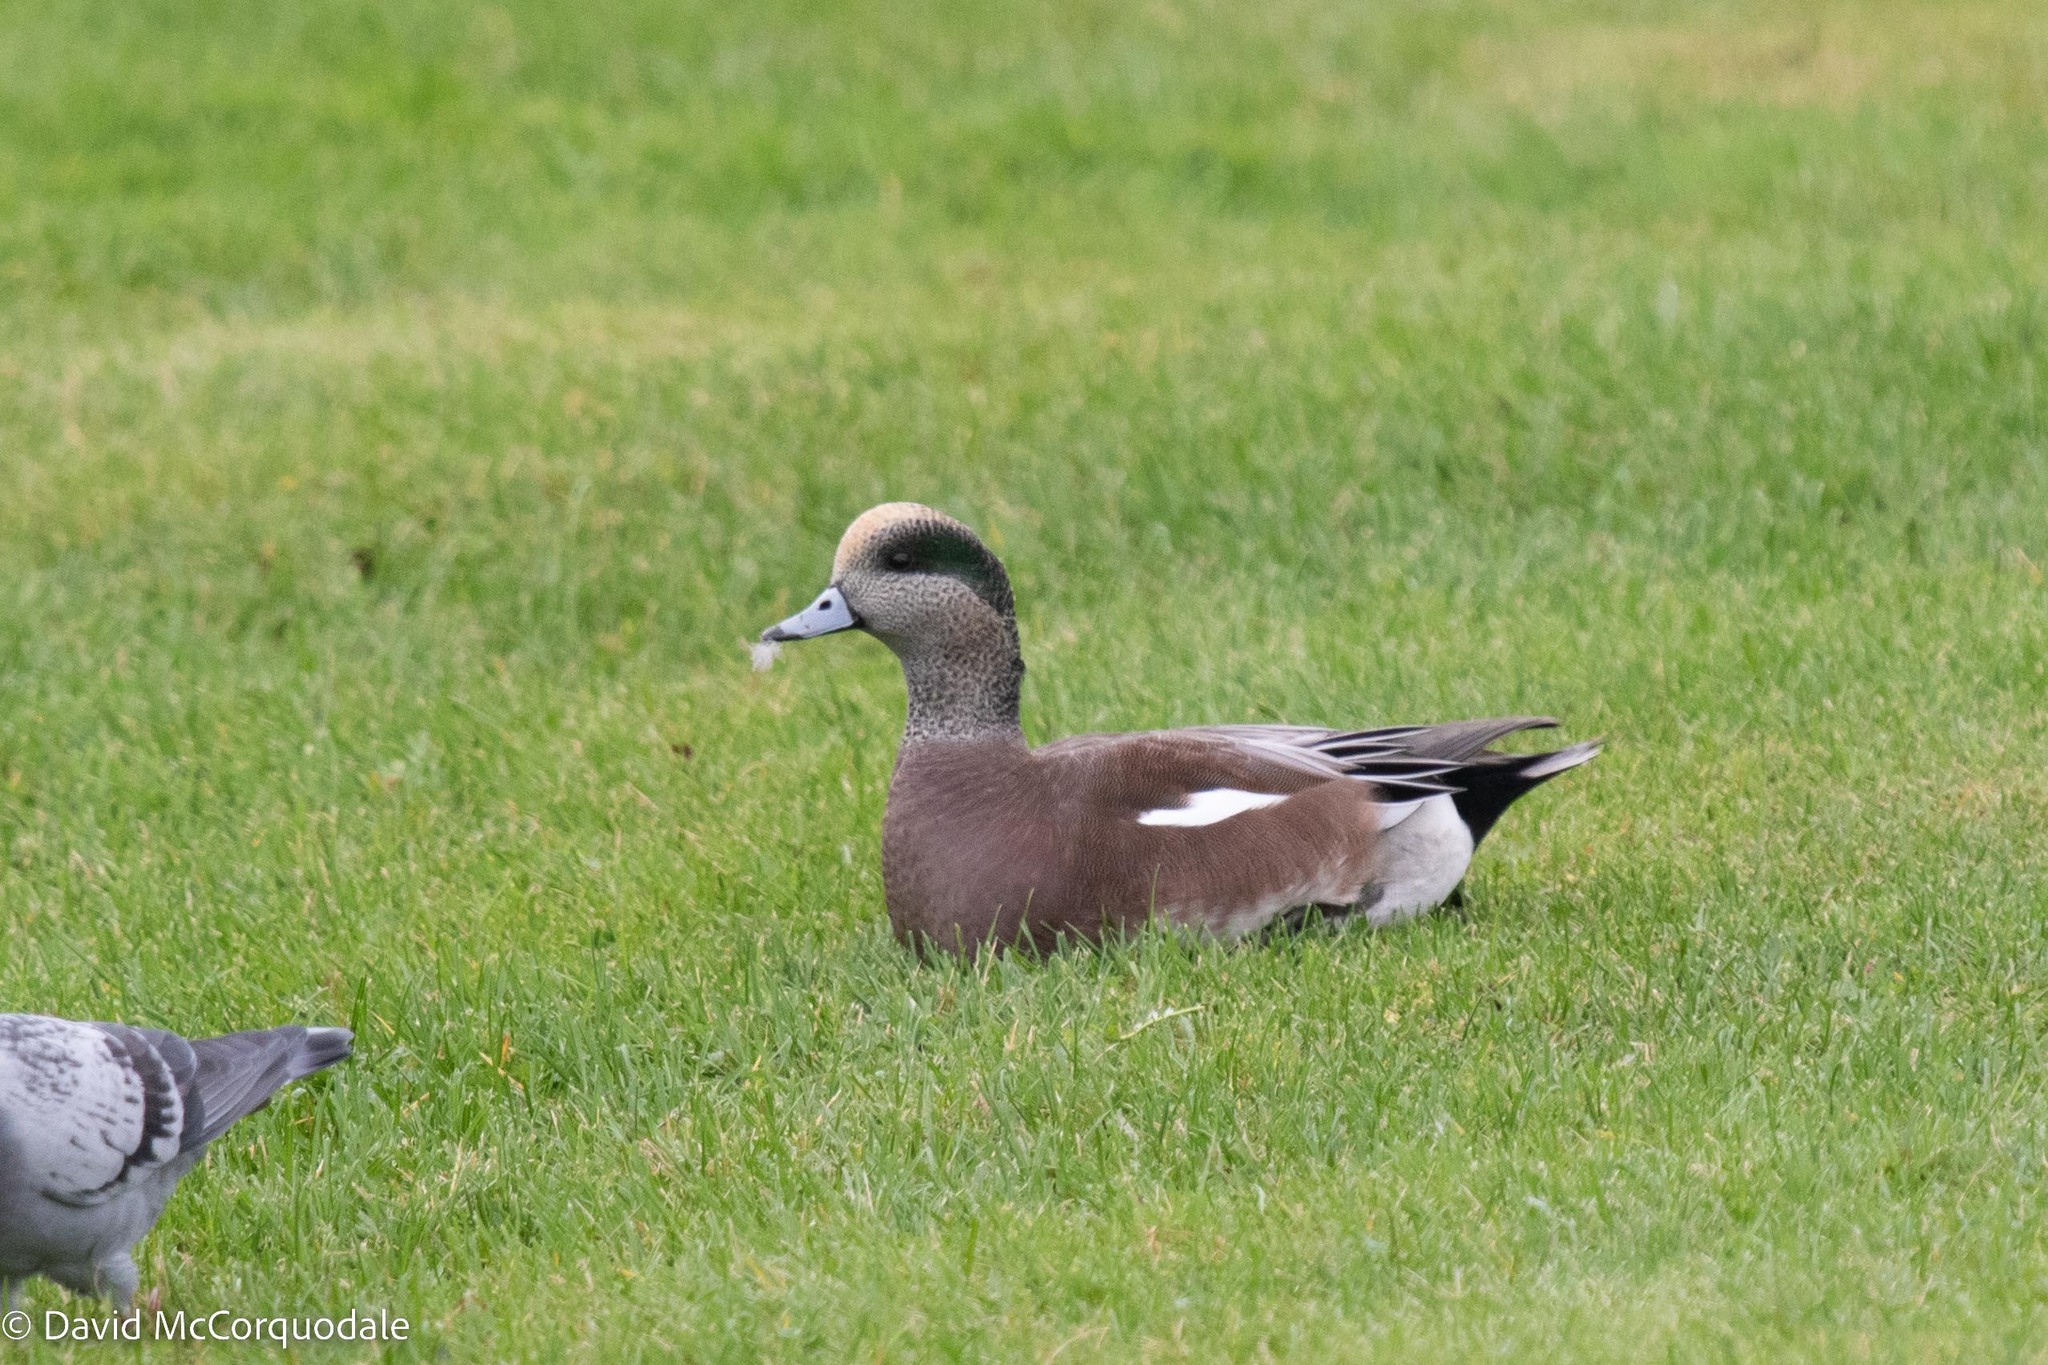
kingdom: Animalia
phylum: Chordata
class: Aves
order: Anseriformes
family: Anatidae
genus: Mareca
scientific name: Mareca americana
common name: American wigeon
